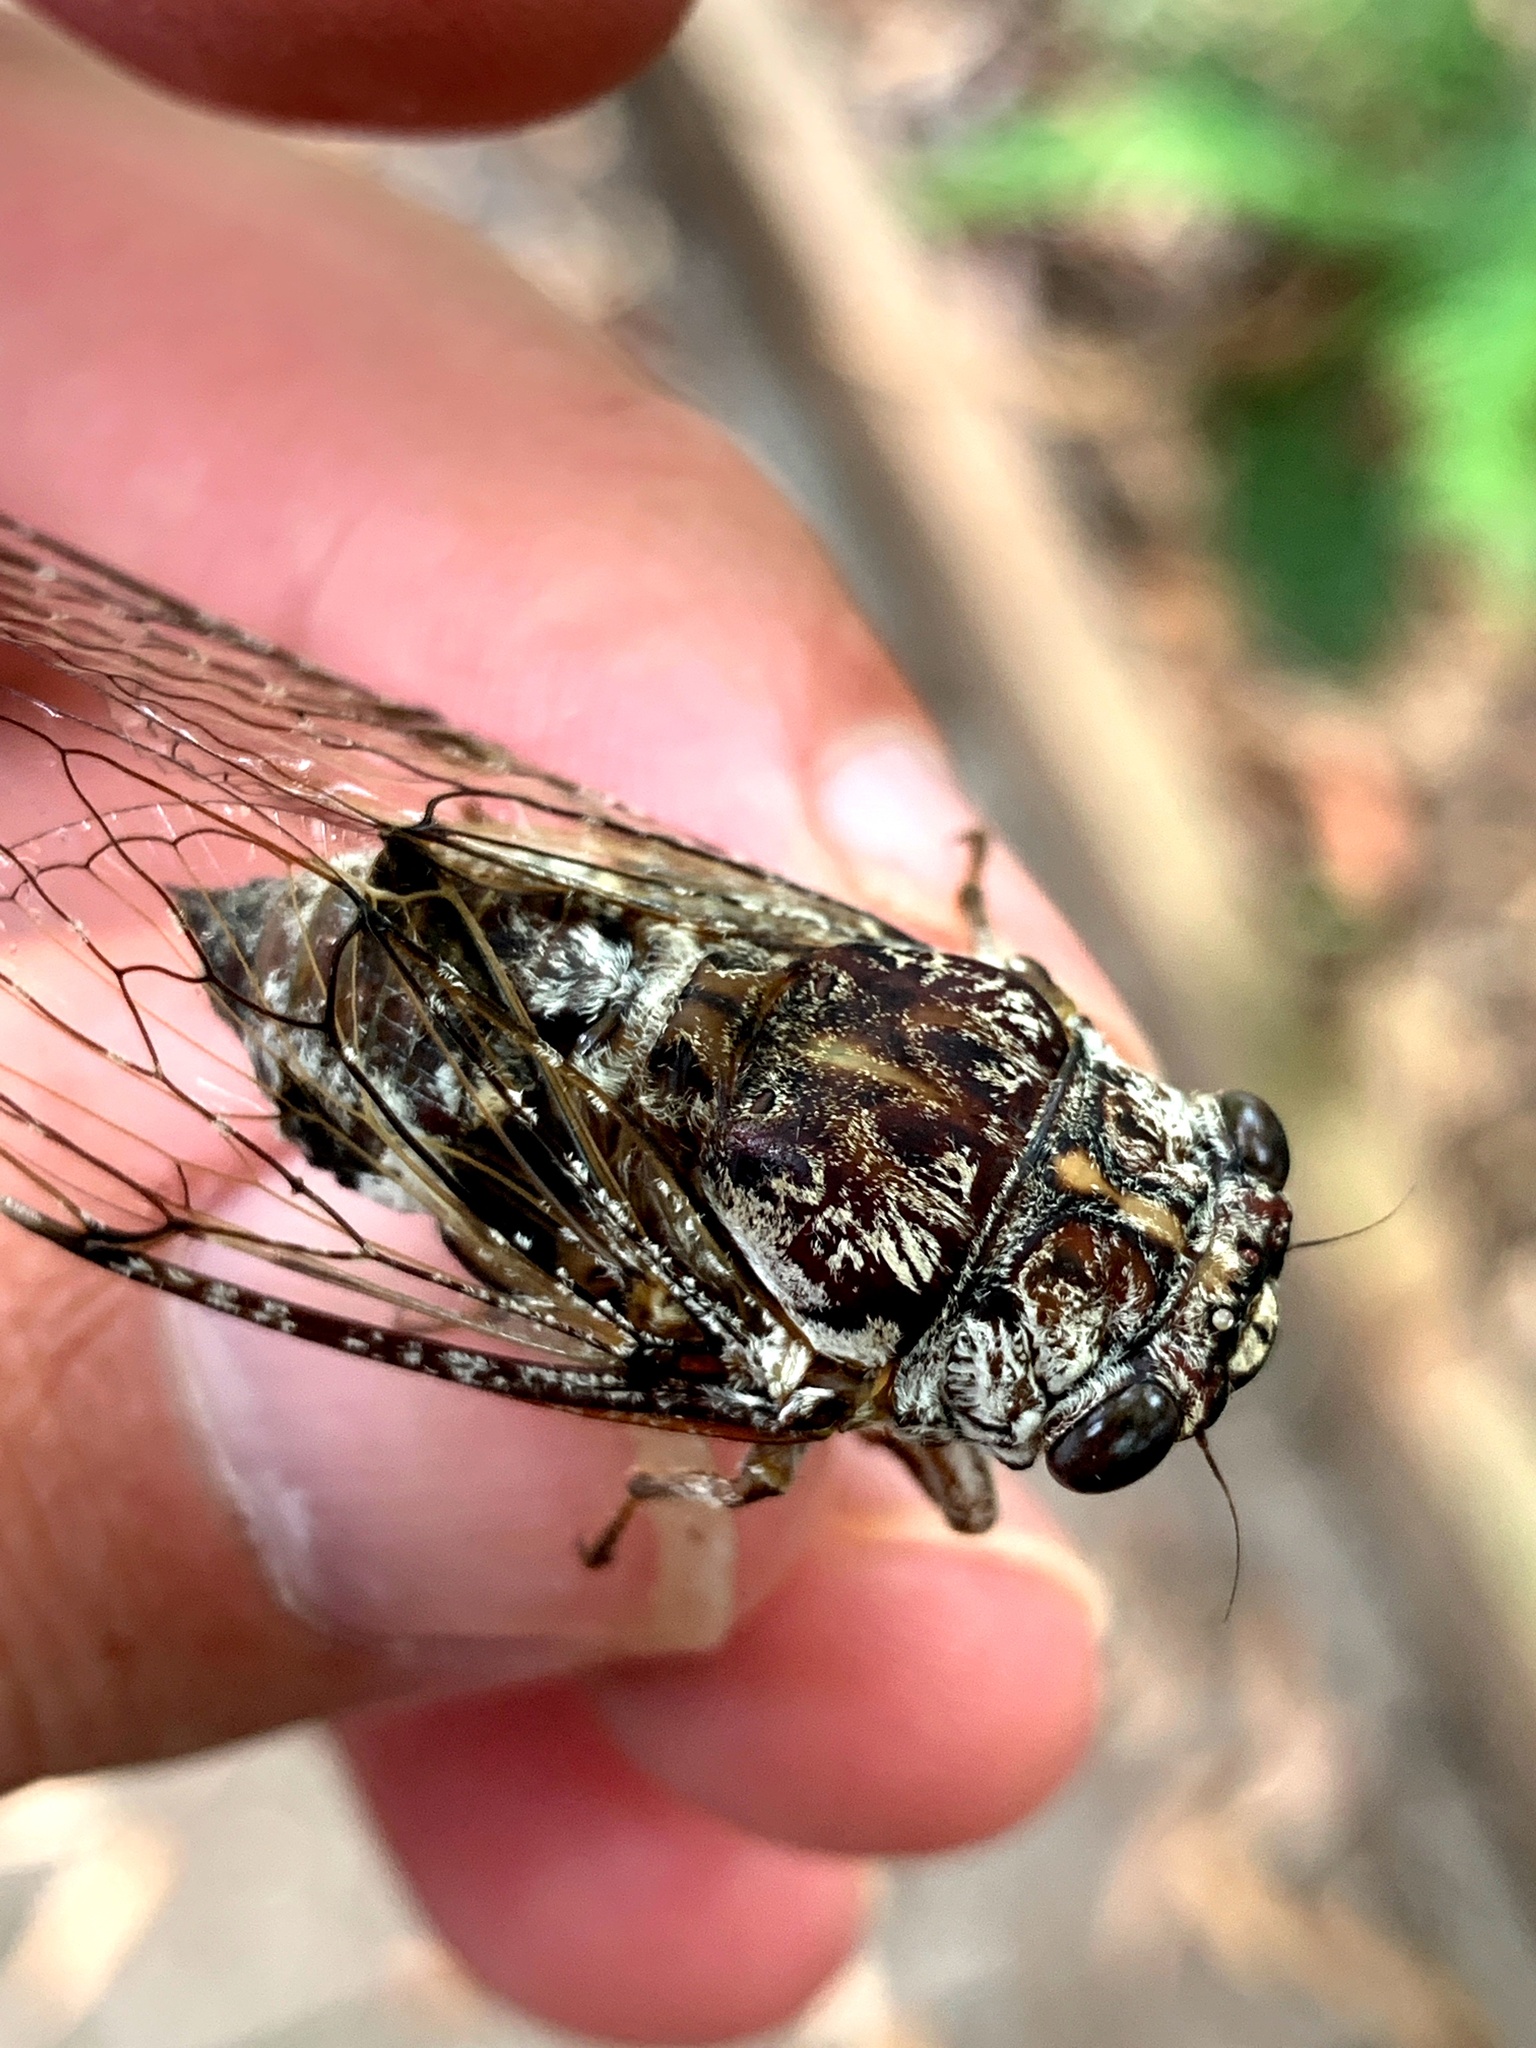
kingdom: Animalia
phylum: Arthropoda
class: Insecta
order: Hemiptera
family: Cicadidae
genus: Aleeta
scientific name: Aleeta curvicosta
